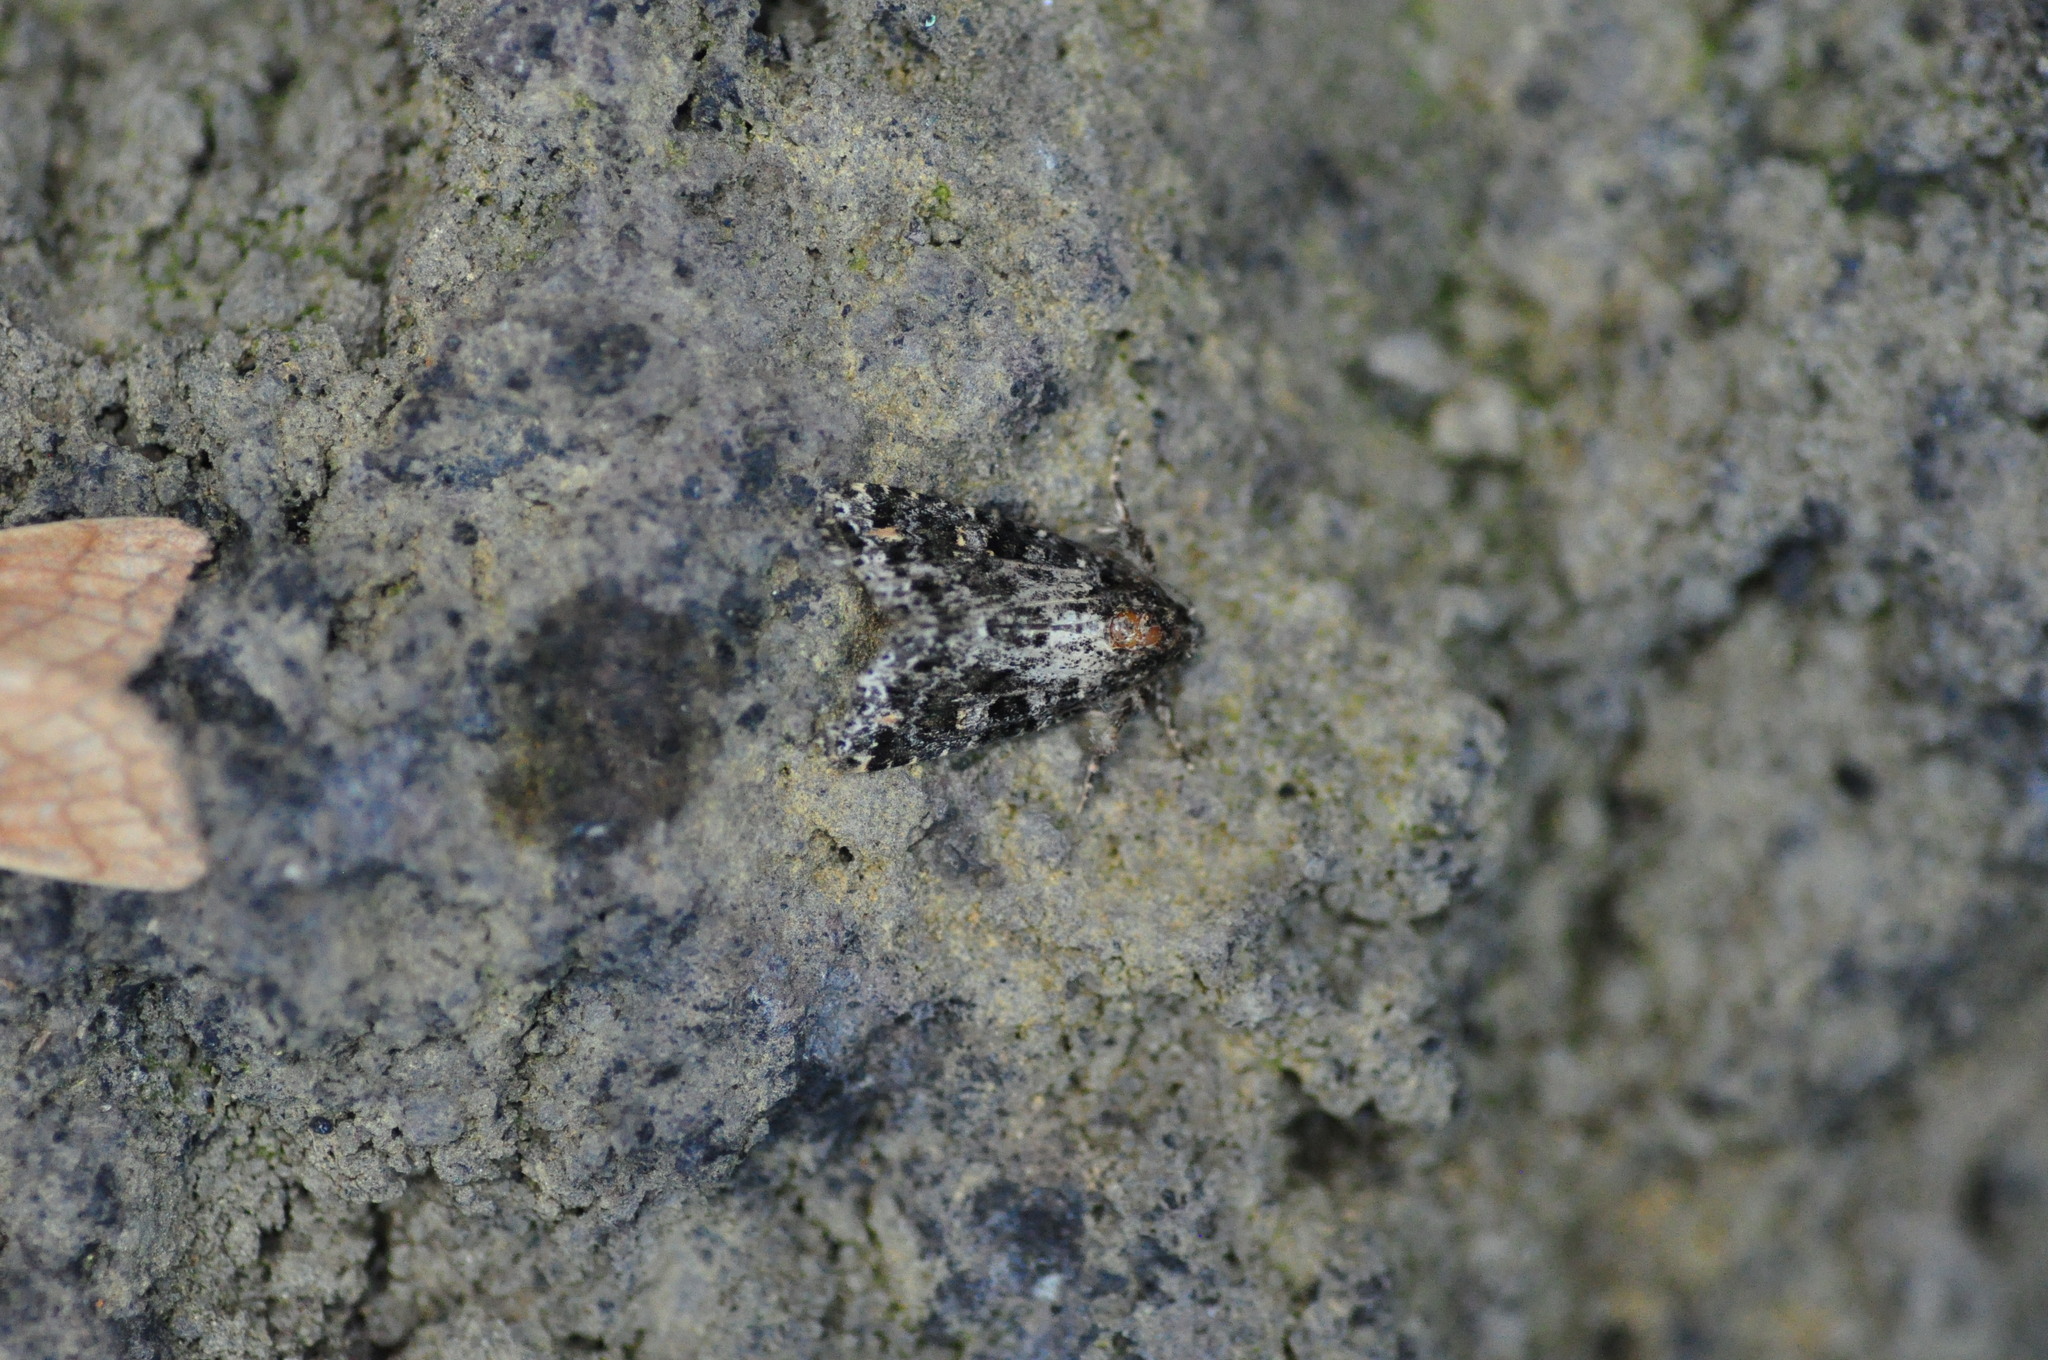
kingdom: Animalia
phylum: Arthropoda
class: Insecta
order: Lepidoptera
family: Noctuidae
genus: Callopistria
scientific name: Callopistria latreillei
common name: Latreille's latin
